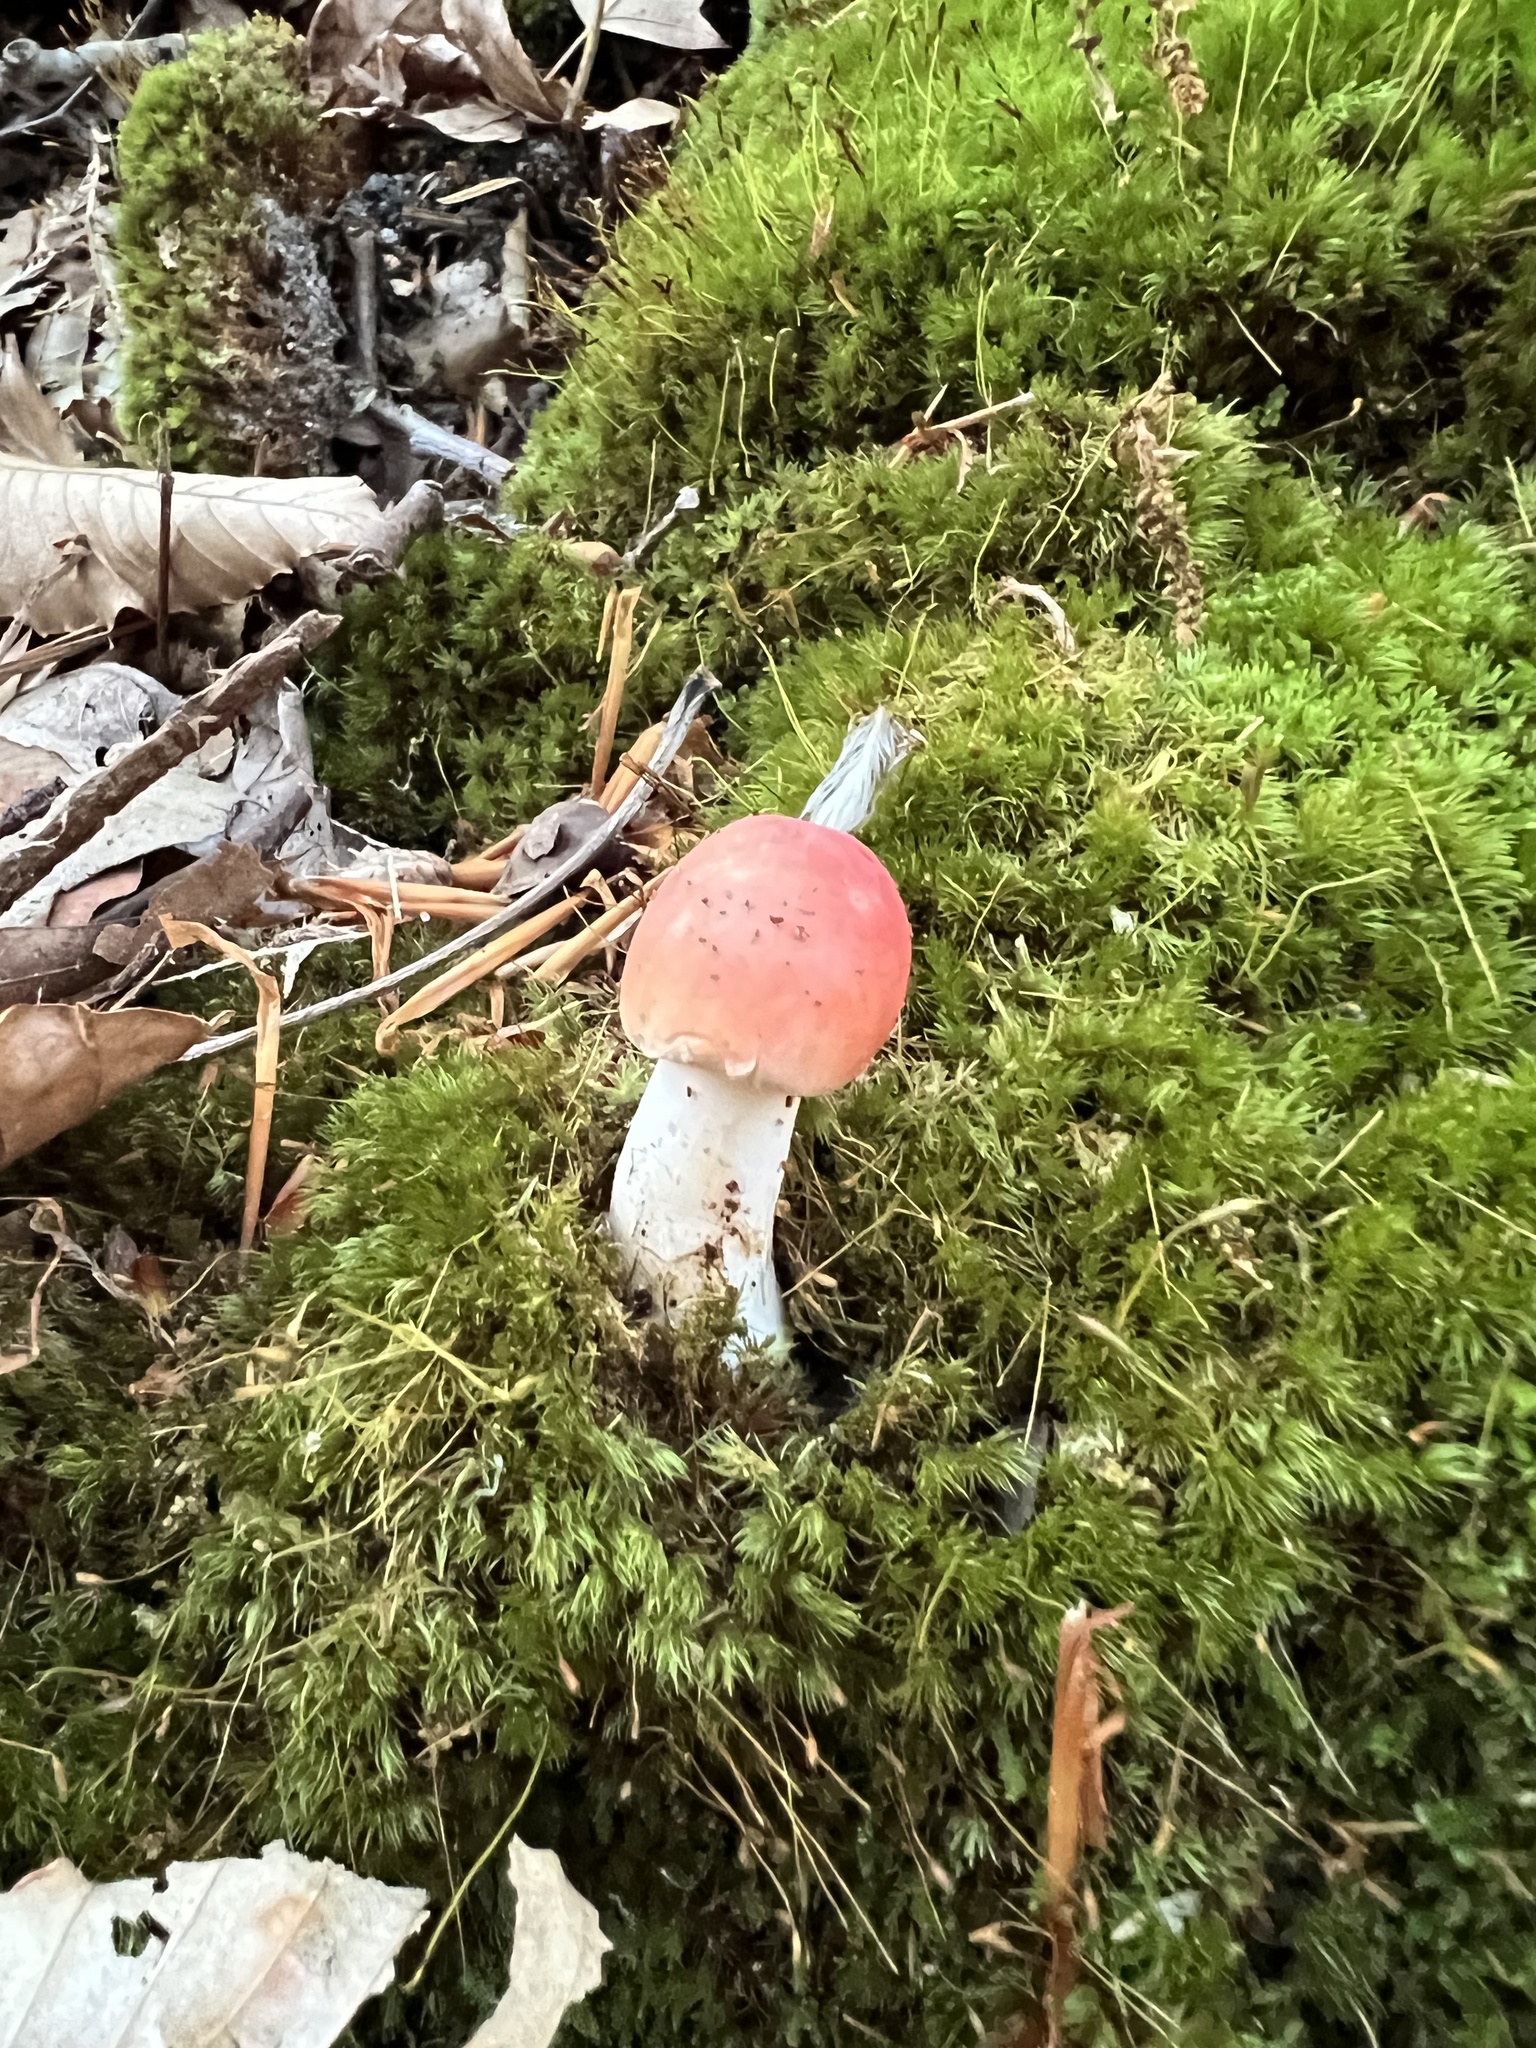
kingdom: Fungi
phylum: Basidiomycota
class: Agaricomycetes
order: Russulales
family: Russulaceae
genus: Russula
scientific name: Russula
